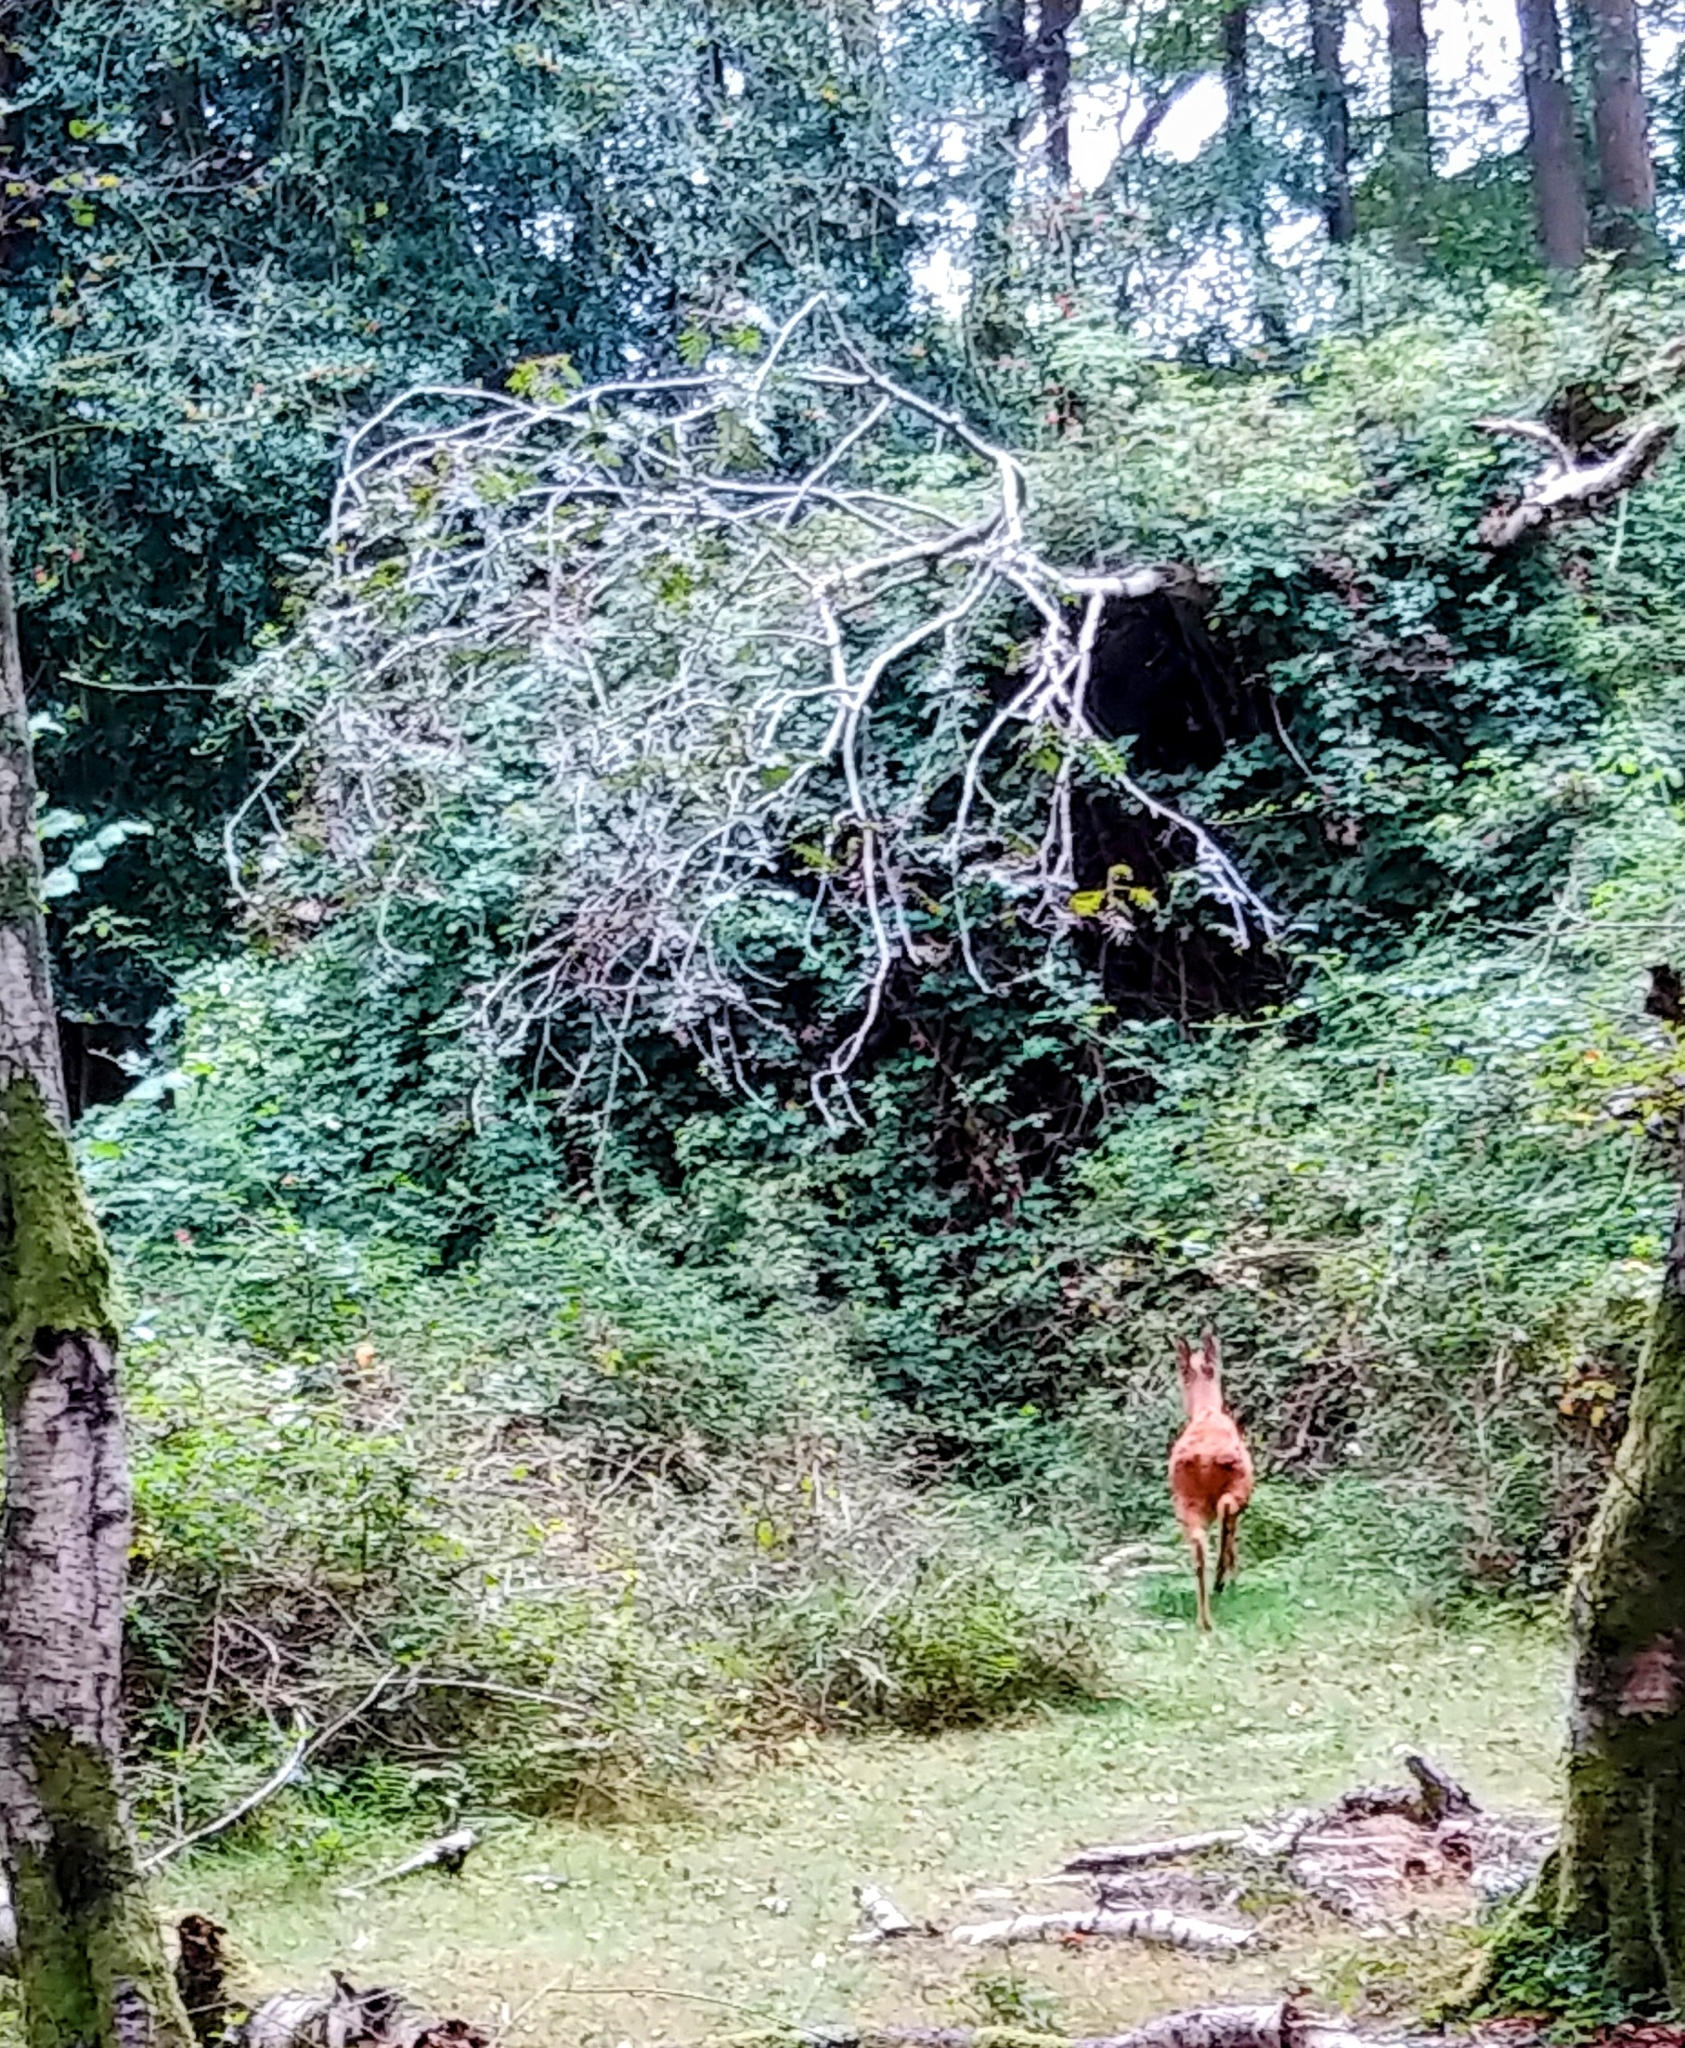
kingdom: Animalia
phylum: Chordata
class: Mammalia
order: Artiodactyla
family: Cervidae
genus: Muntiacus
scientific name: Muntiacus reevesi
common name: Reeves' muntjac
